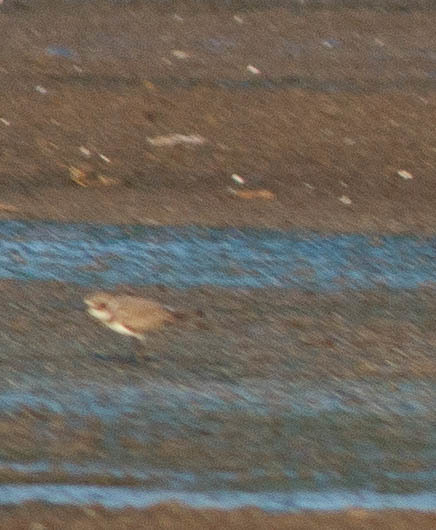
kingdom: Animalia
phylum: Chordata
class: Aves
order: Charadriiformes
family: Charadriidae
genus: Charadrius
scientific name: Charadrius semipalmatus
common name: Semipalmated plover
